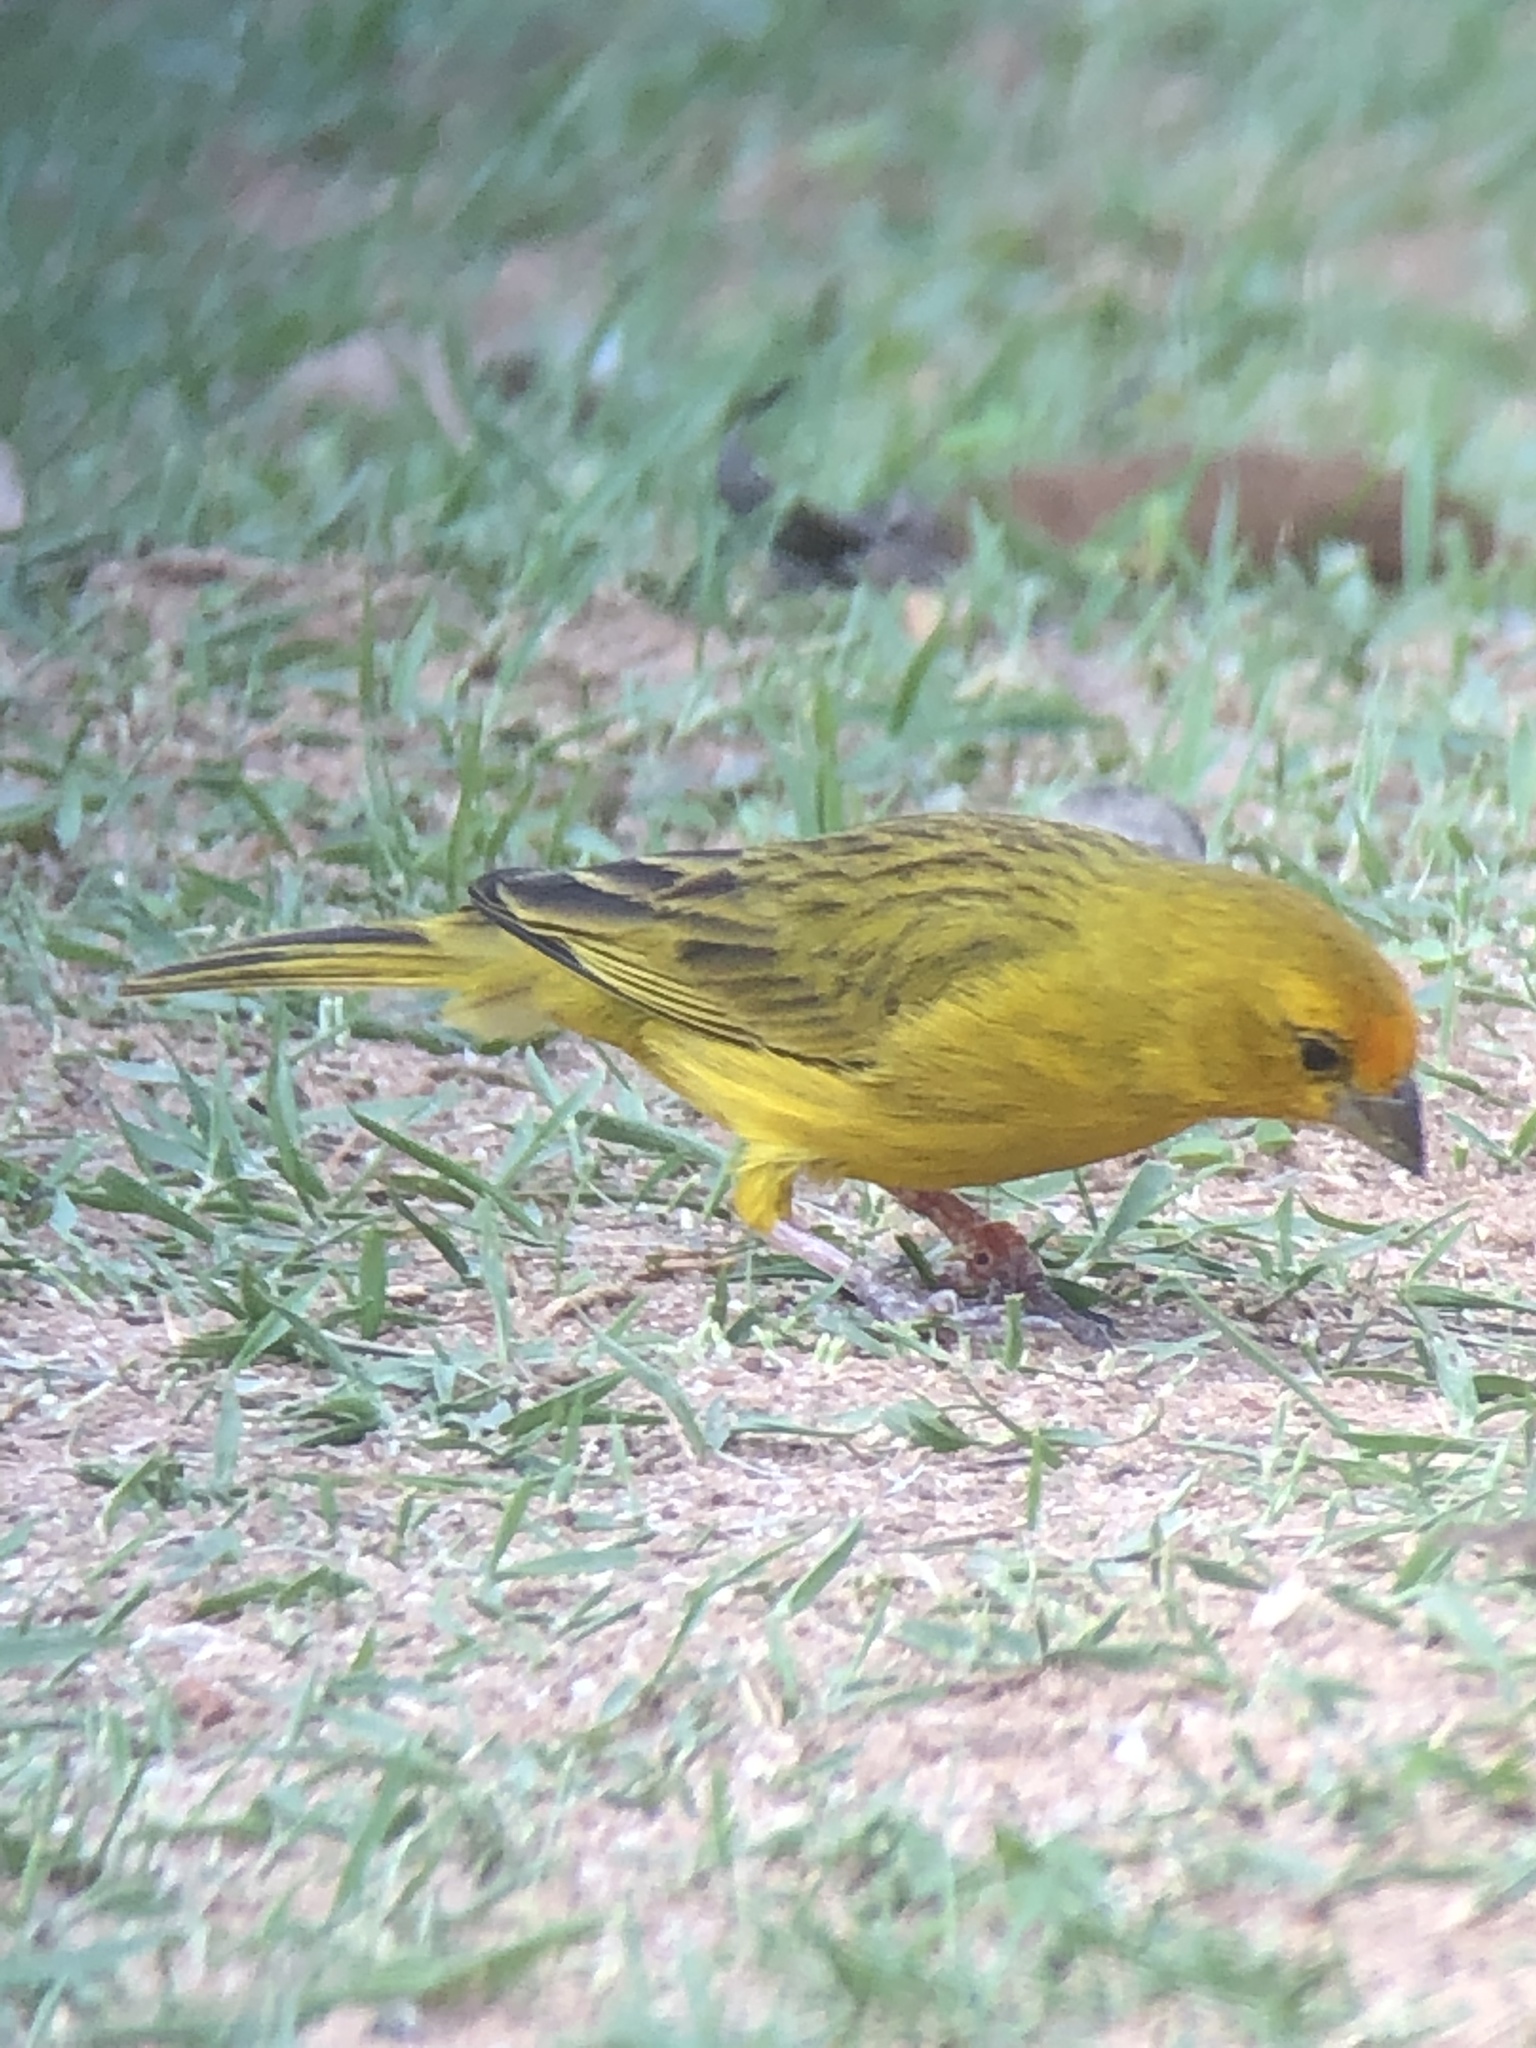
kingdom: Animalia
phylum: Chordata
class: Aves
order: Passeriformes
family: Thraupidae
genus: Sicalis
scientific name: Sicalis flaveola
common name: Saffron finch
